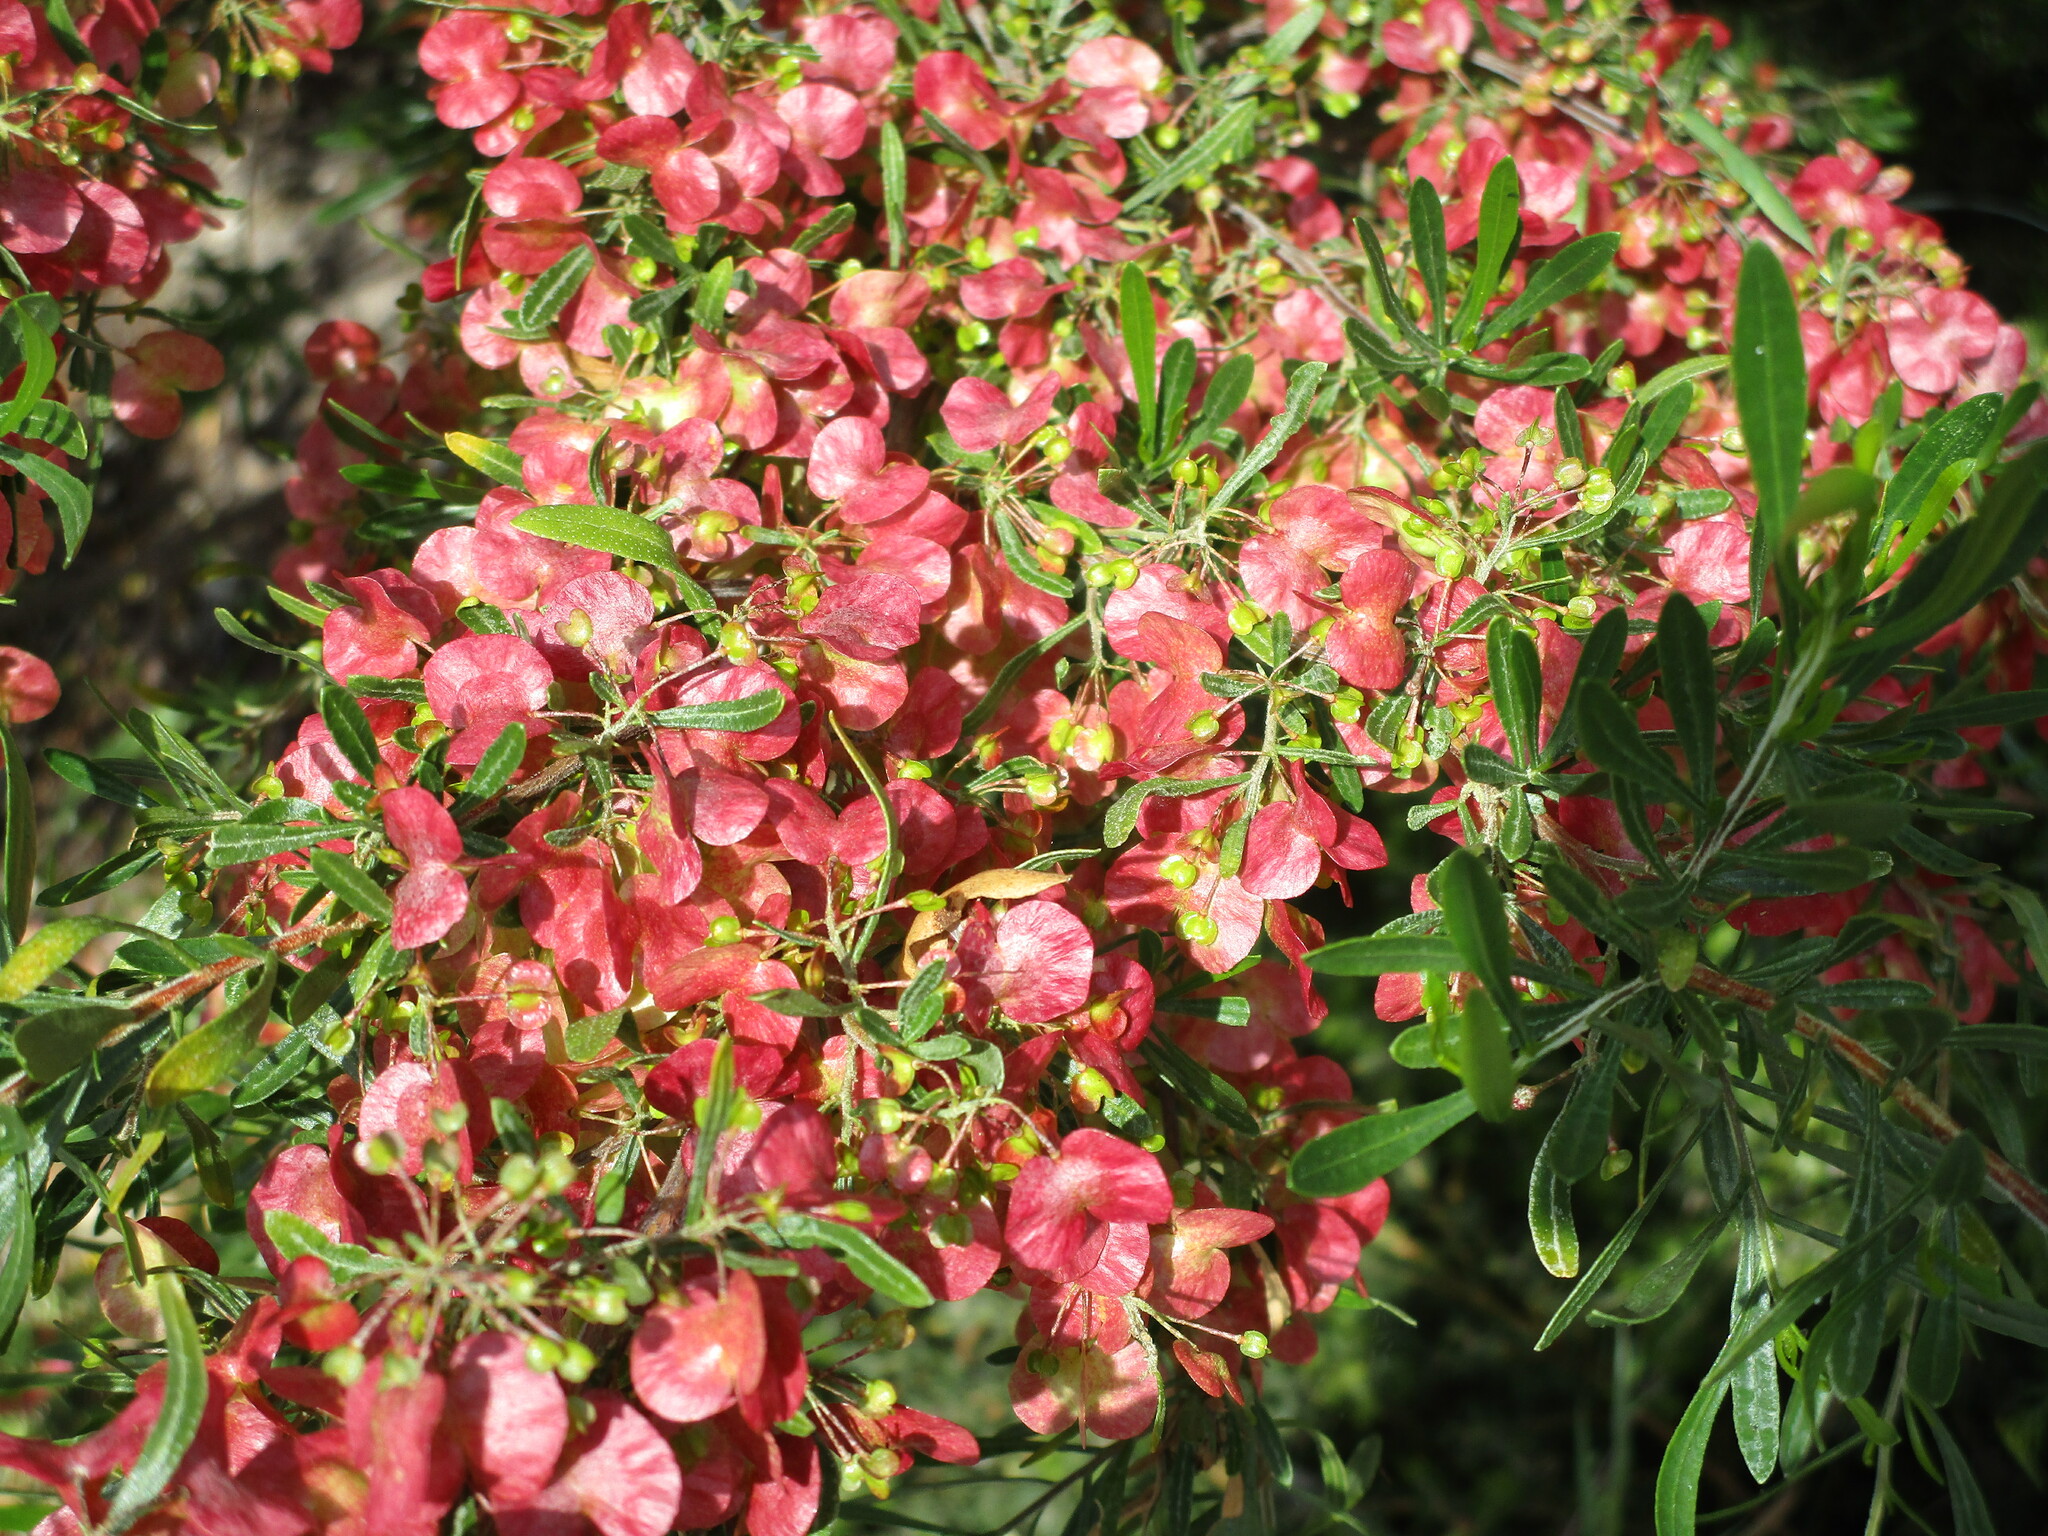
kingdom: Plantae
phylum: Tracheophyta
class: Magnoliopsida
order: Sapindales
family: Sapindaceae
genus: Dodonaea
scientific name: Dodonaea hackettiana
